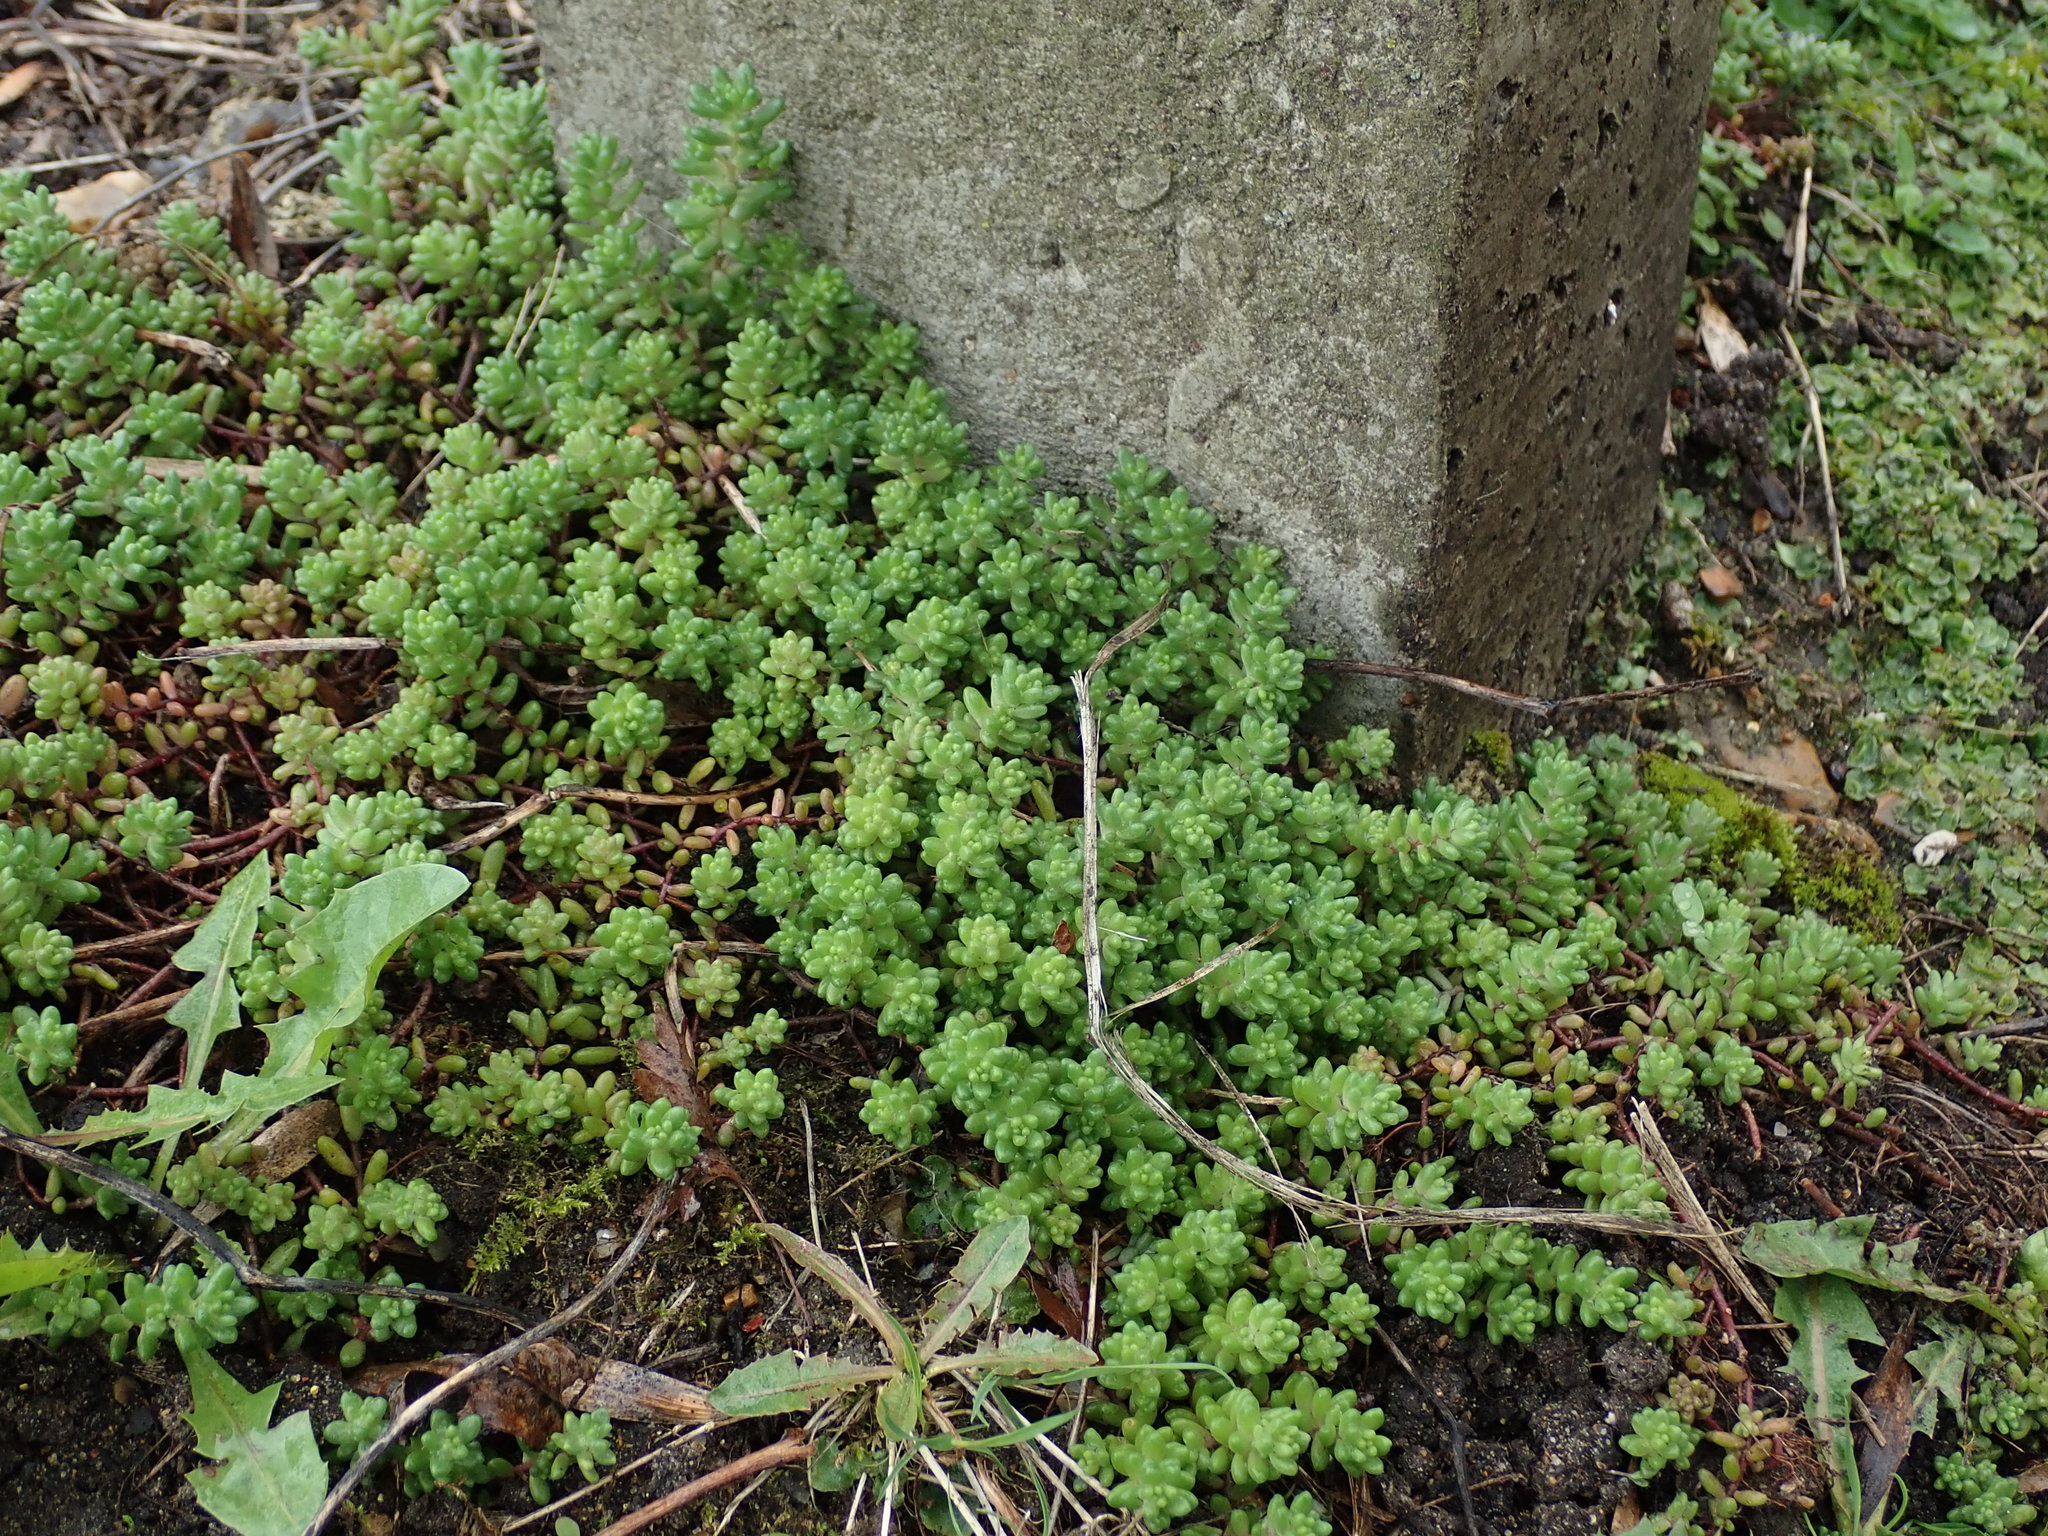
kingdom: Plantae
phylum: Tracheophyta
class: Magnoliopsida
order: Saxifragales
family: Crassulaceae
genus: Sedum
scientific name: Sedum album
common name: White stonecrop
